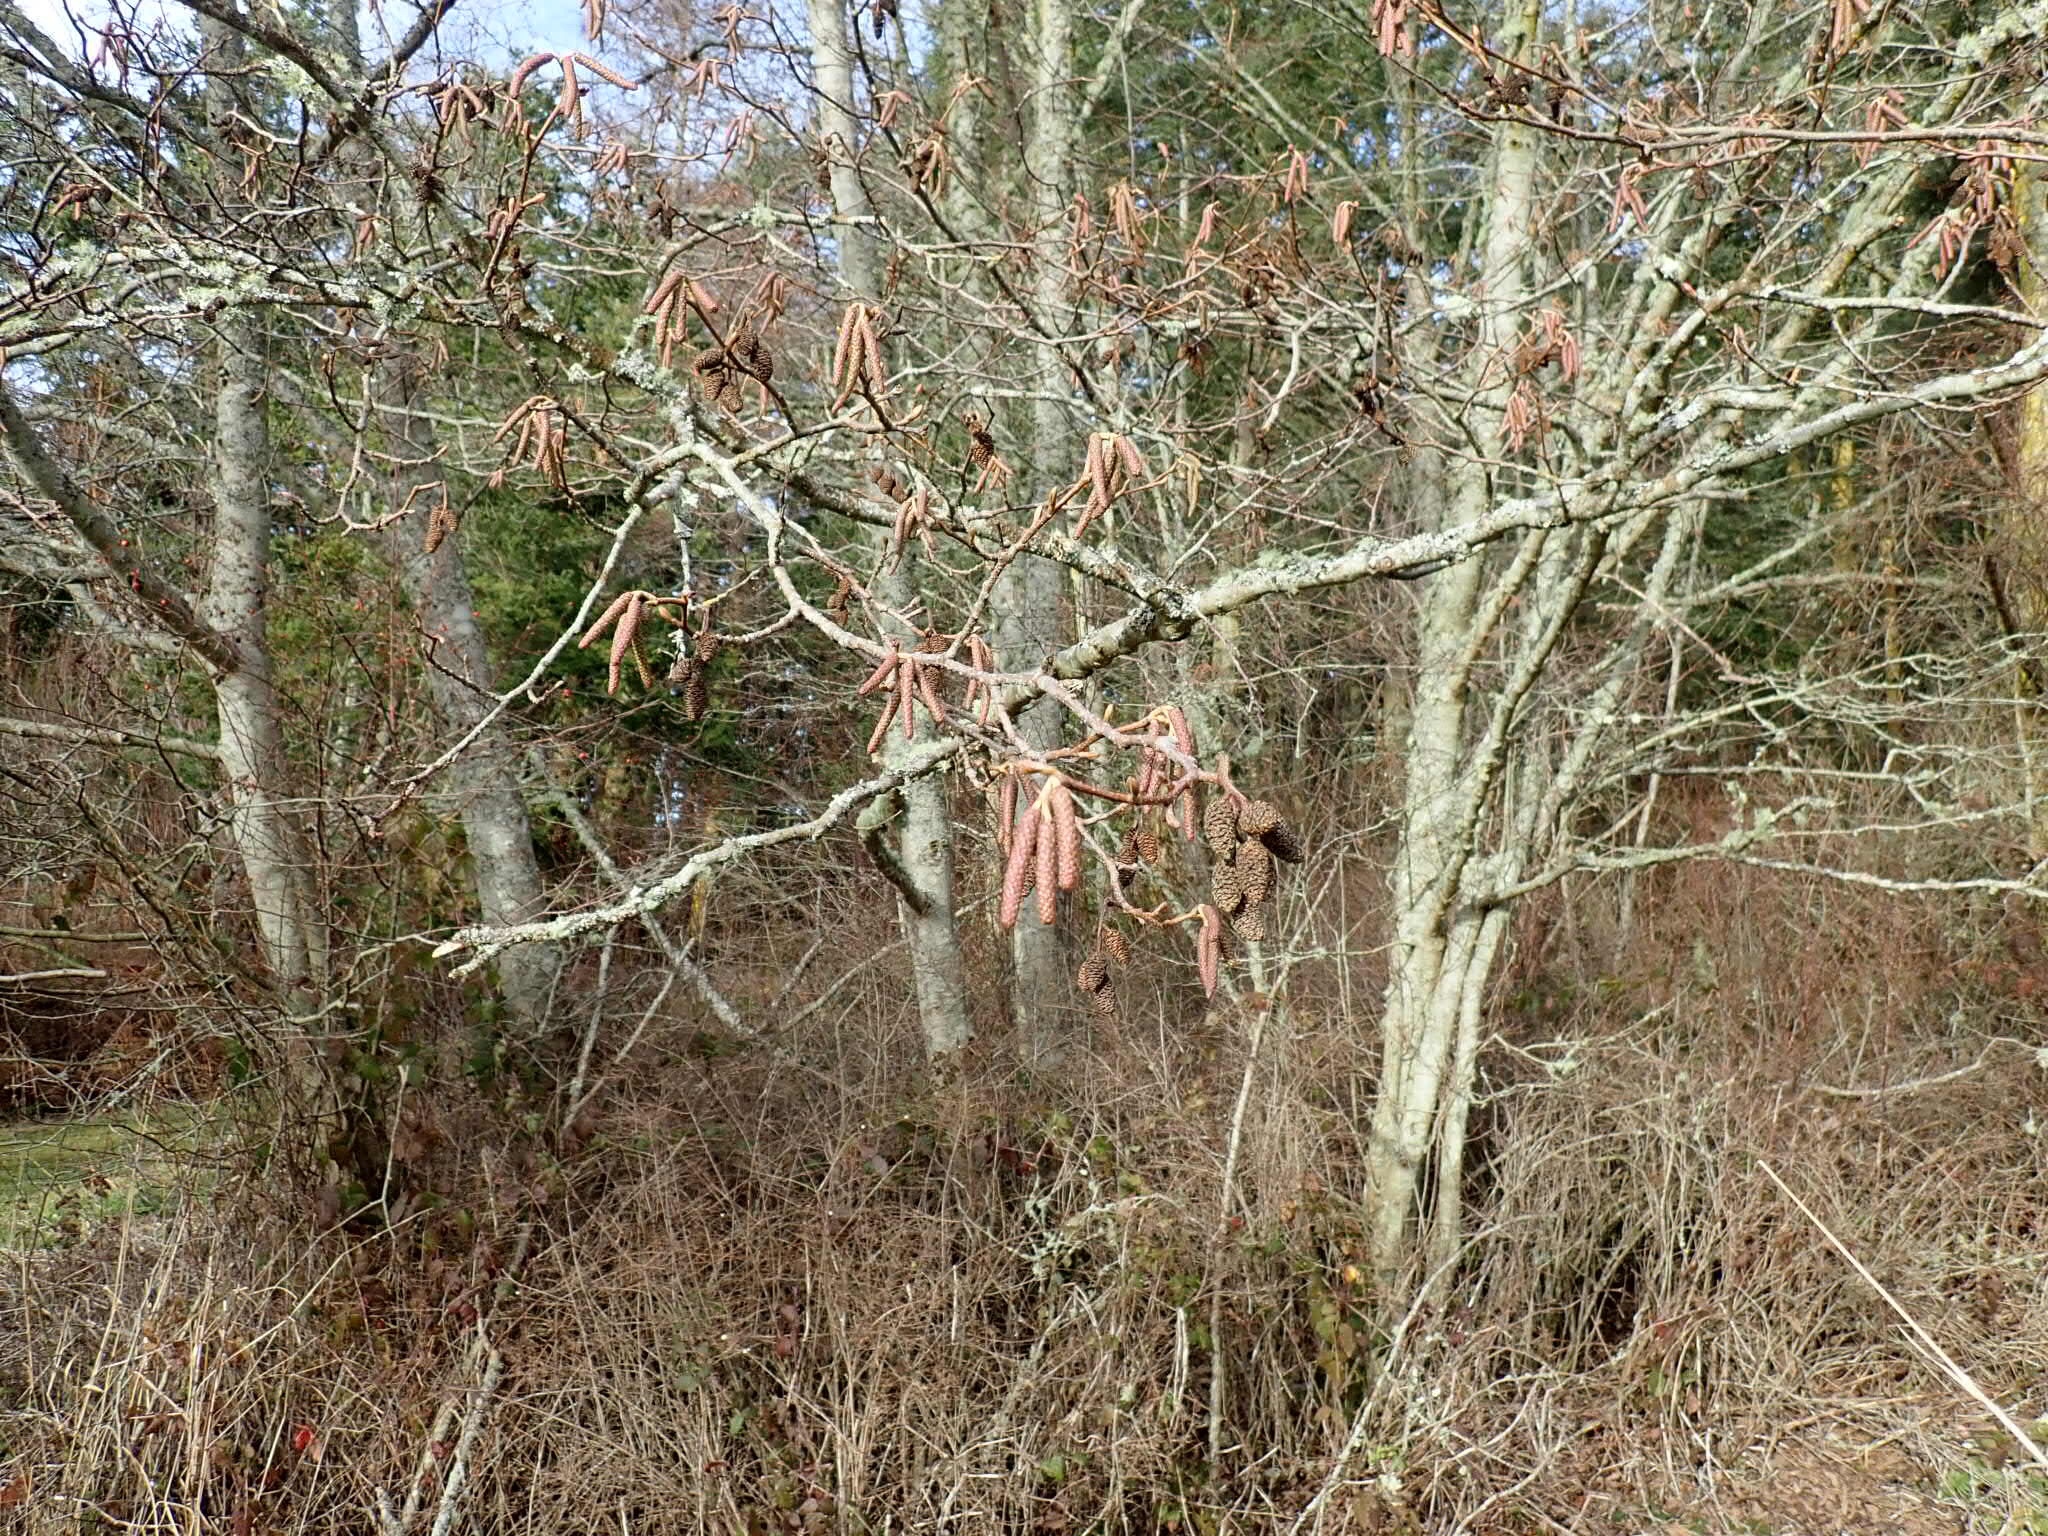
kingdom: Plantae
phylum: Tracheophyta
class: Magnoliopsida
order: Fagales
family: Betulaceae
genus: Alnus
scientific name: Alnus rubra
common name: Red alder
